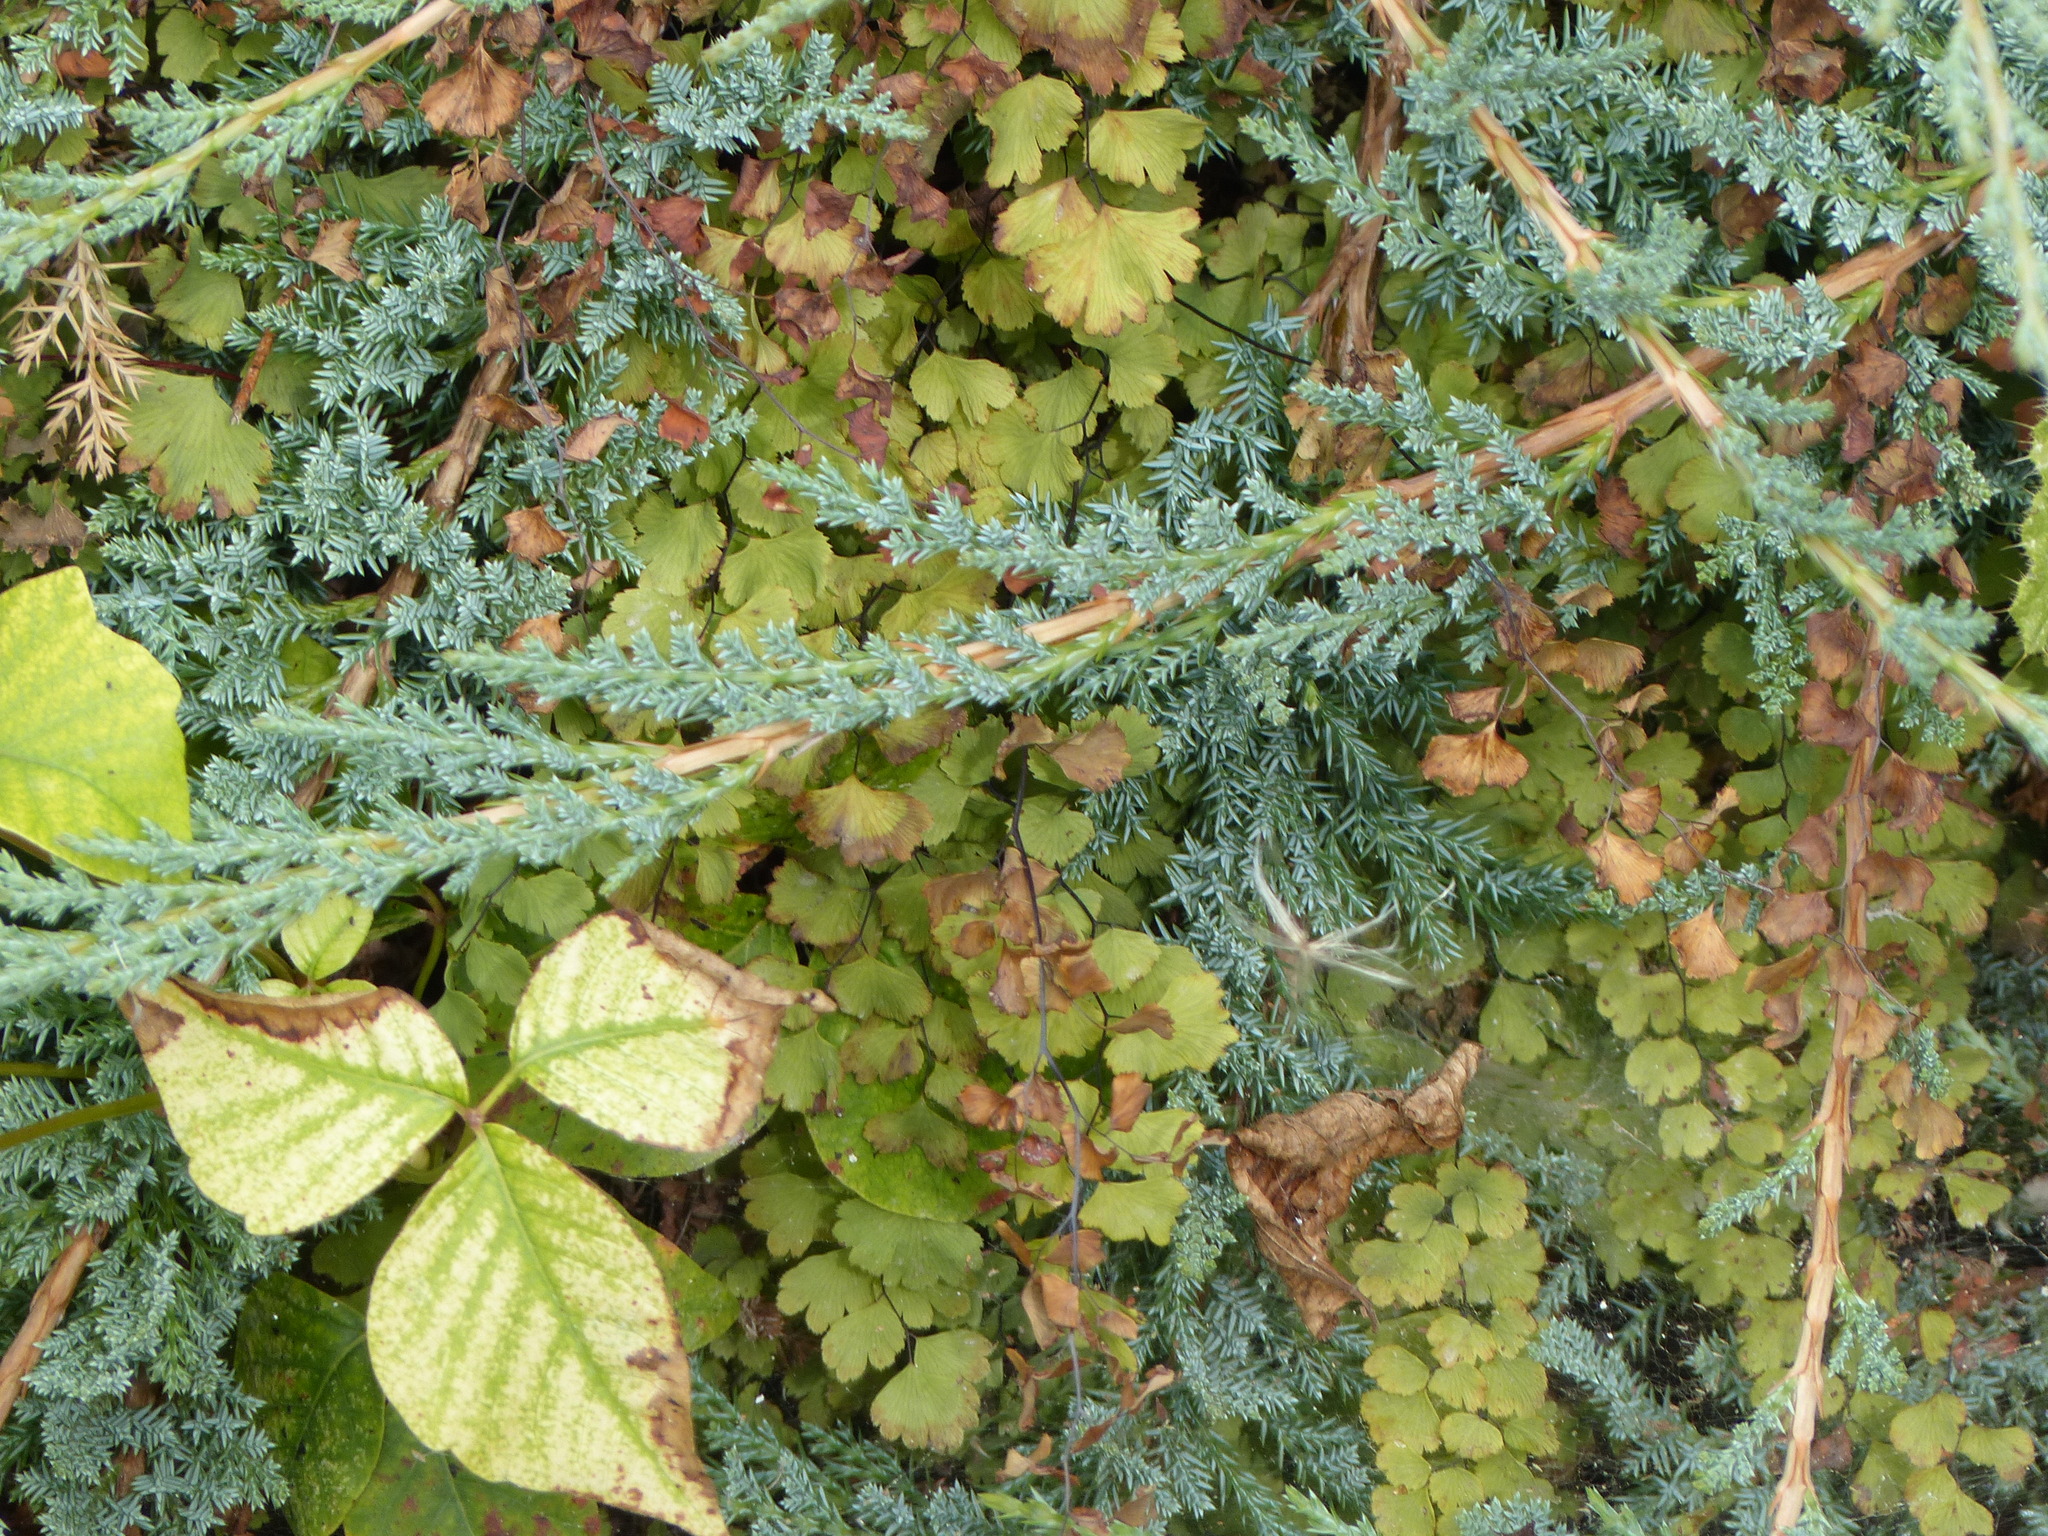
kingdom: Plantae
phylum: Tracheophyta
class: Polypodiopsida
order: Polypodiales
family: Pteridaceae
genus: Adiantum
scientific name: Adiantum capillus-veneris
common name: Maidenhair fern
